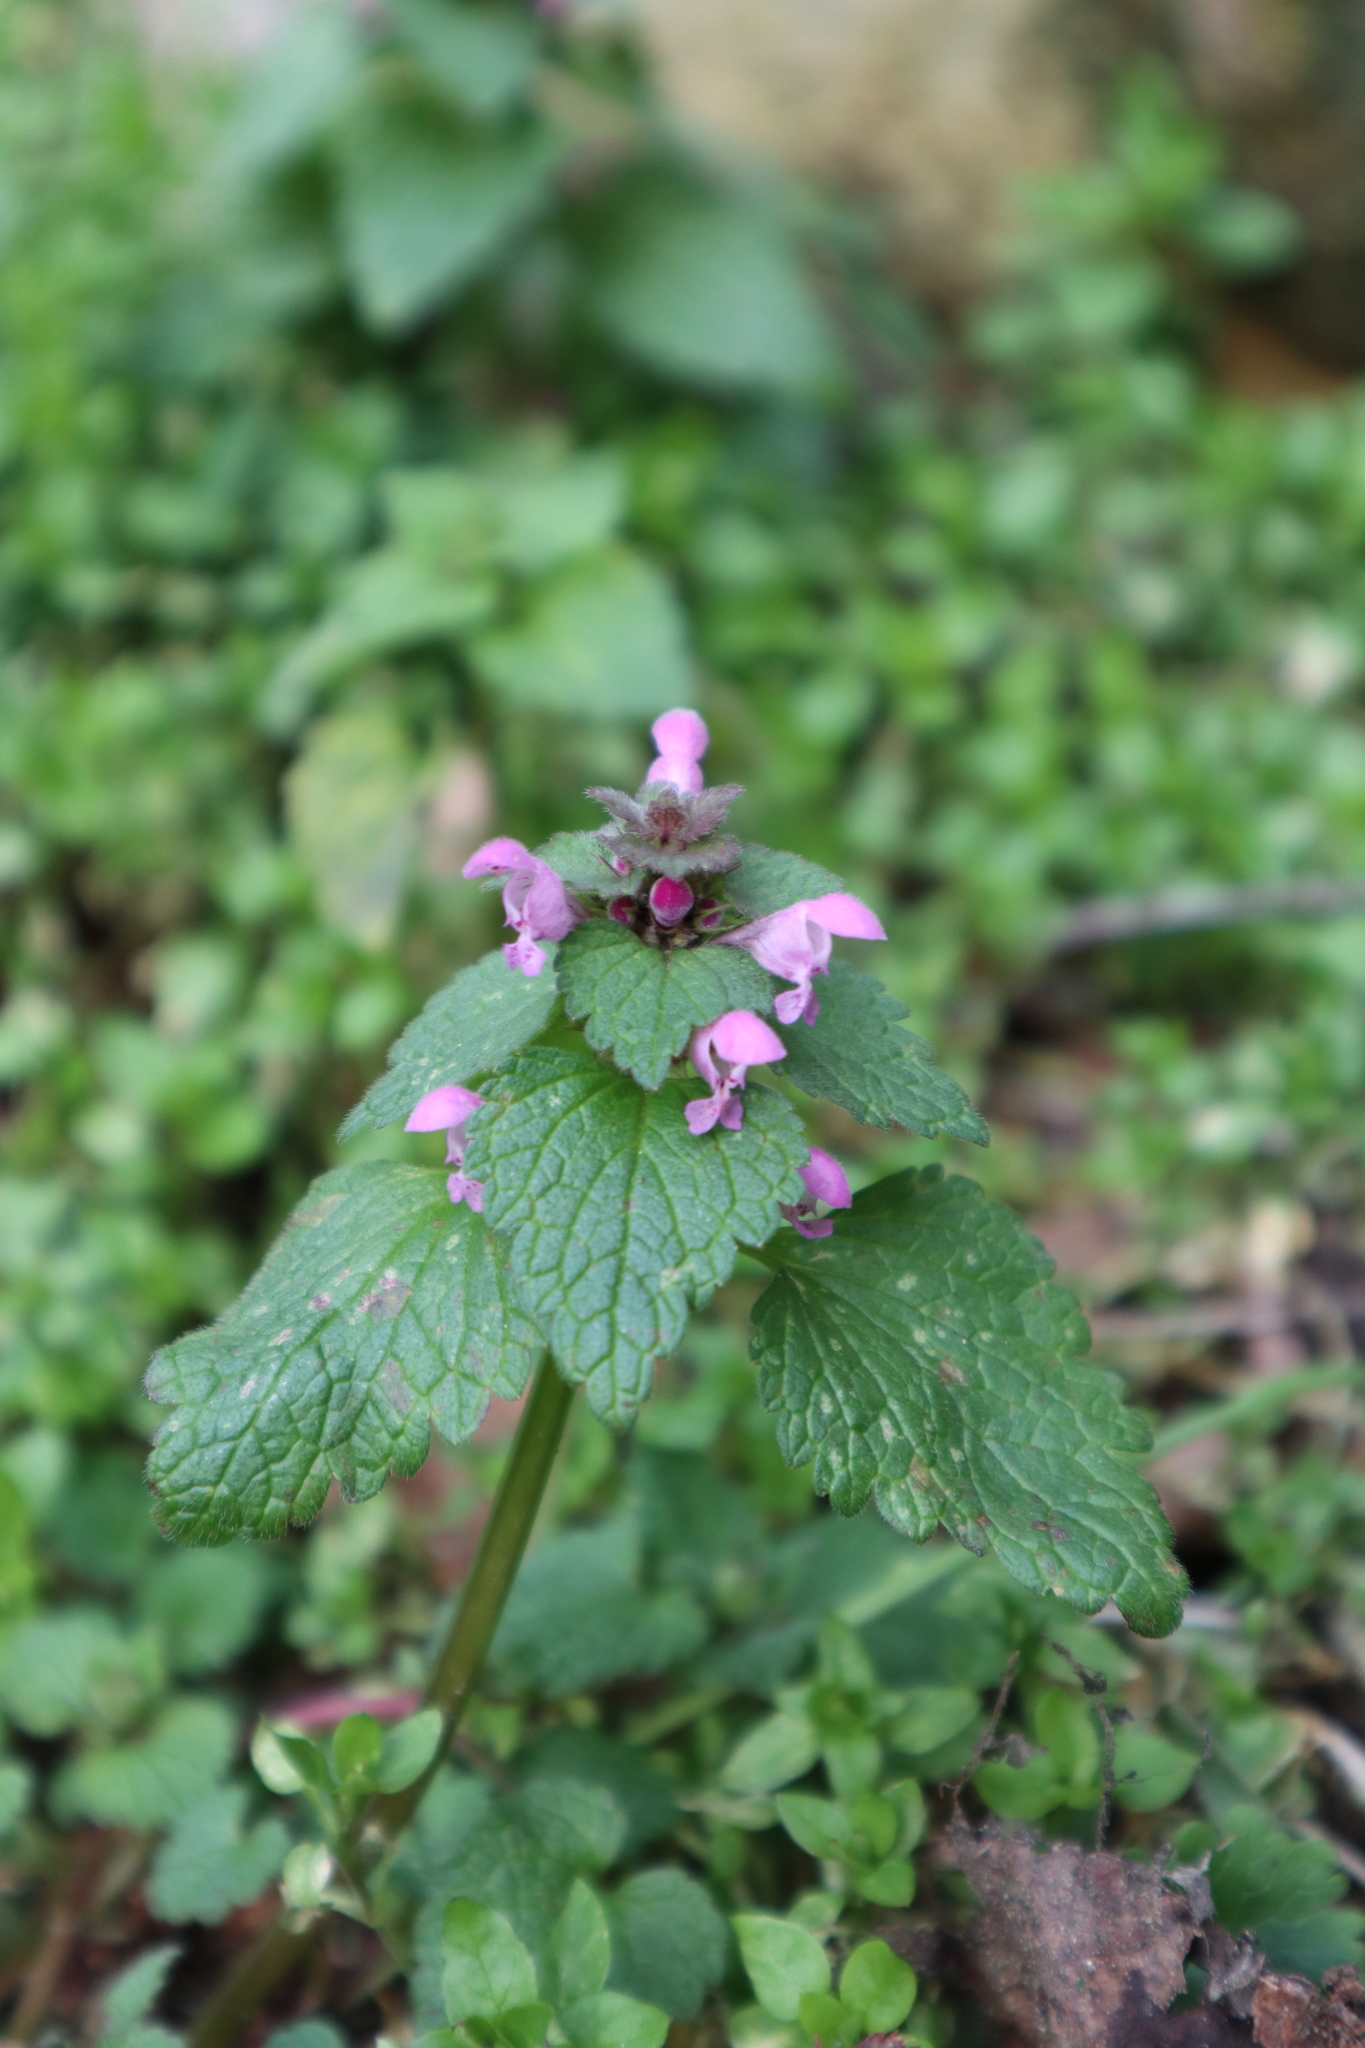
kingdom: Plantae
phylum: Tracheophyta
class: Magnoliopsida
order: Lamiales
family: Lamiaceae
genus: Lamium
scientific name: Lamium purpureum
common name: Red dead-nettle
